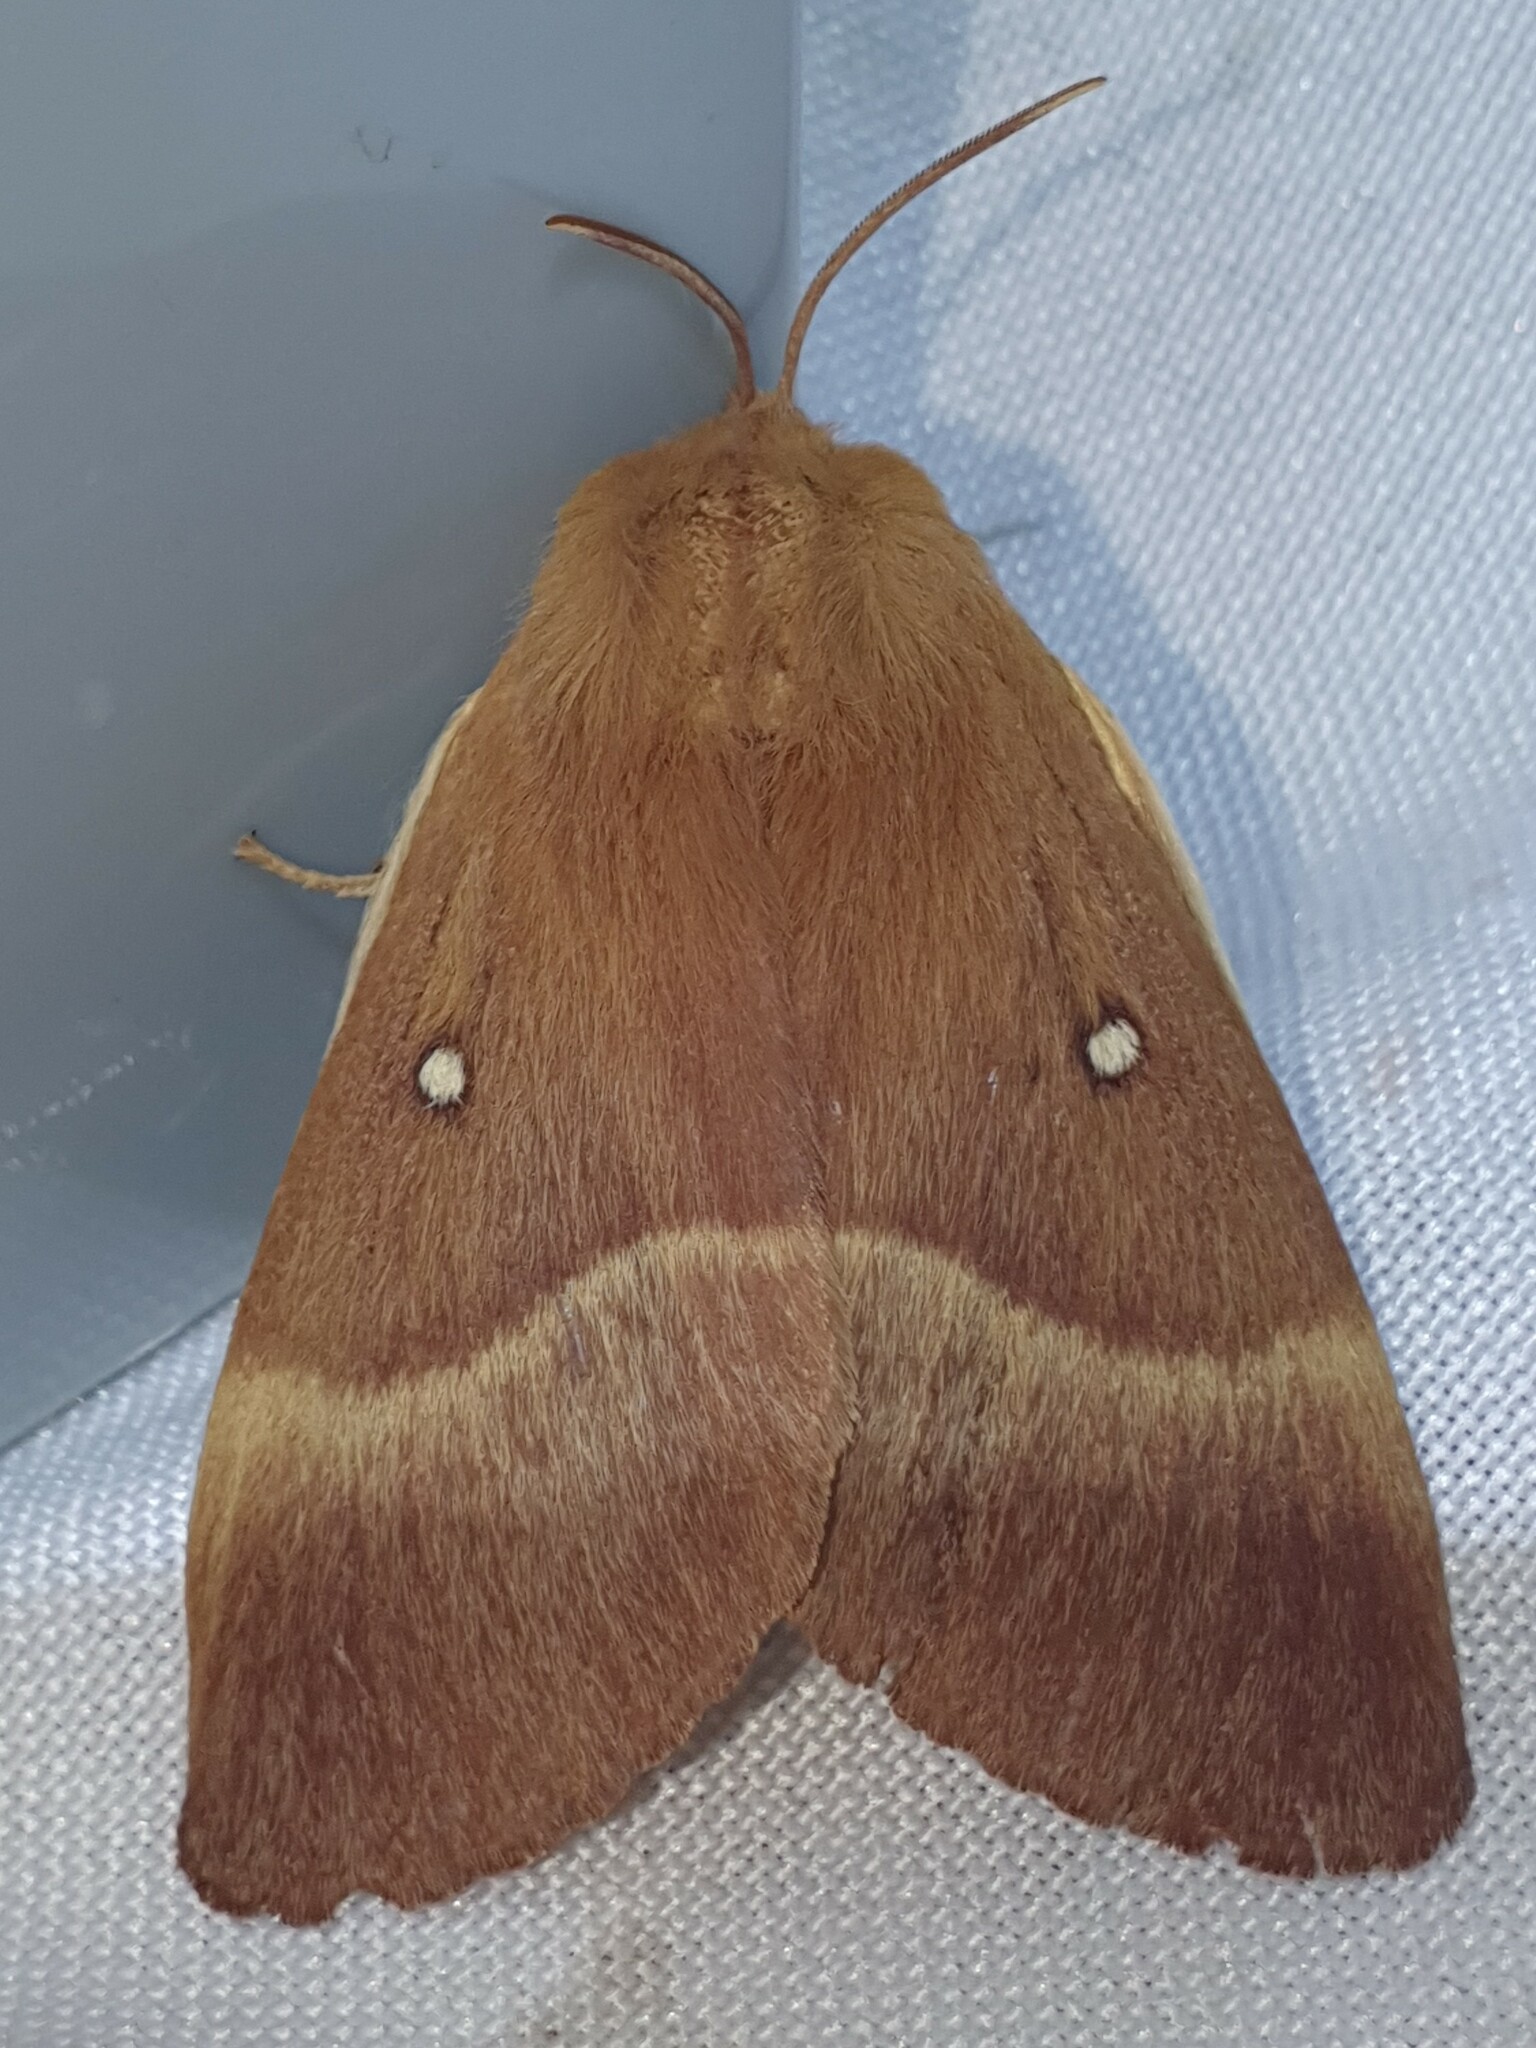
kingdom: Animalia
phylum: Arthropoda
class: Insecta
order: Lepidoptera
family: Lasiocampidae
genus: Lasiocampa
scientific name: Lasiocampa quercus
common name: Oak eggar
